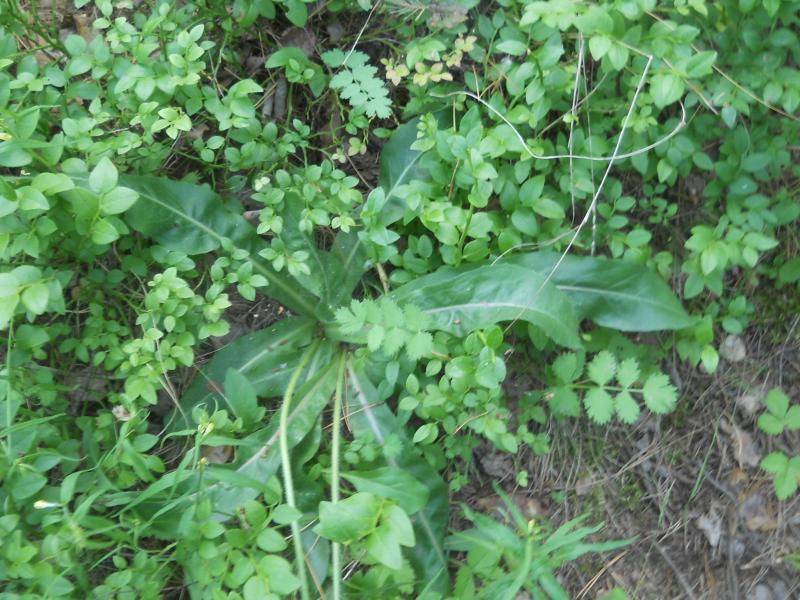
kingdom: Plantae
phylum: Tracheophyta
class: Magnoliopsida
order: Asterales
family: Asteraceae
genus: Trommsdorffia
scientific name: Trommsdorffia maculata
